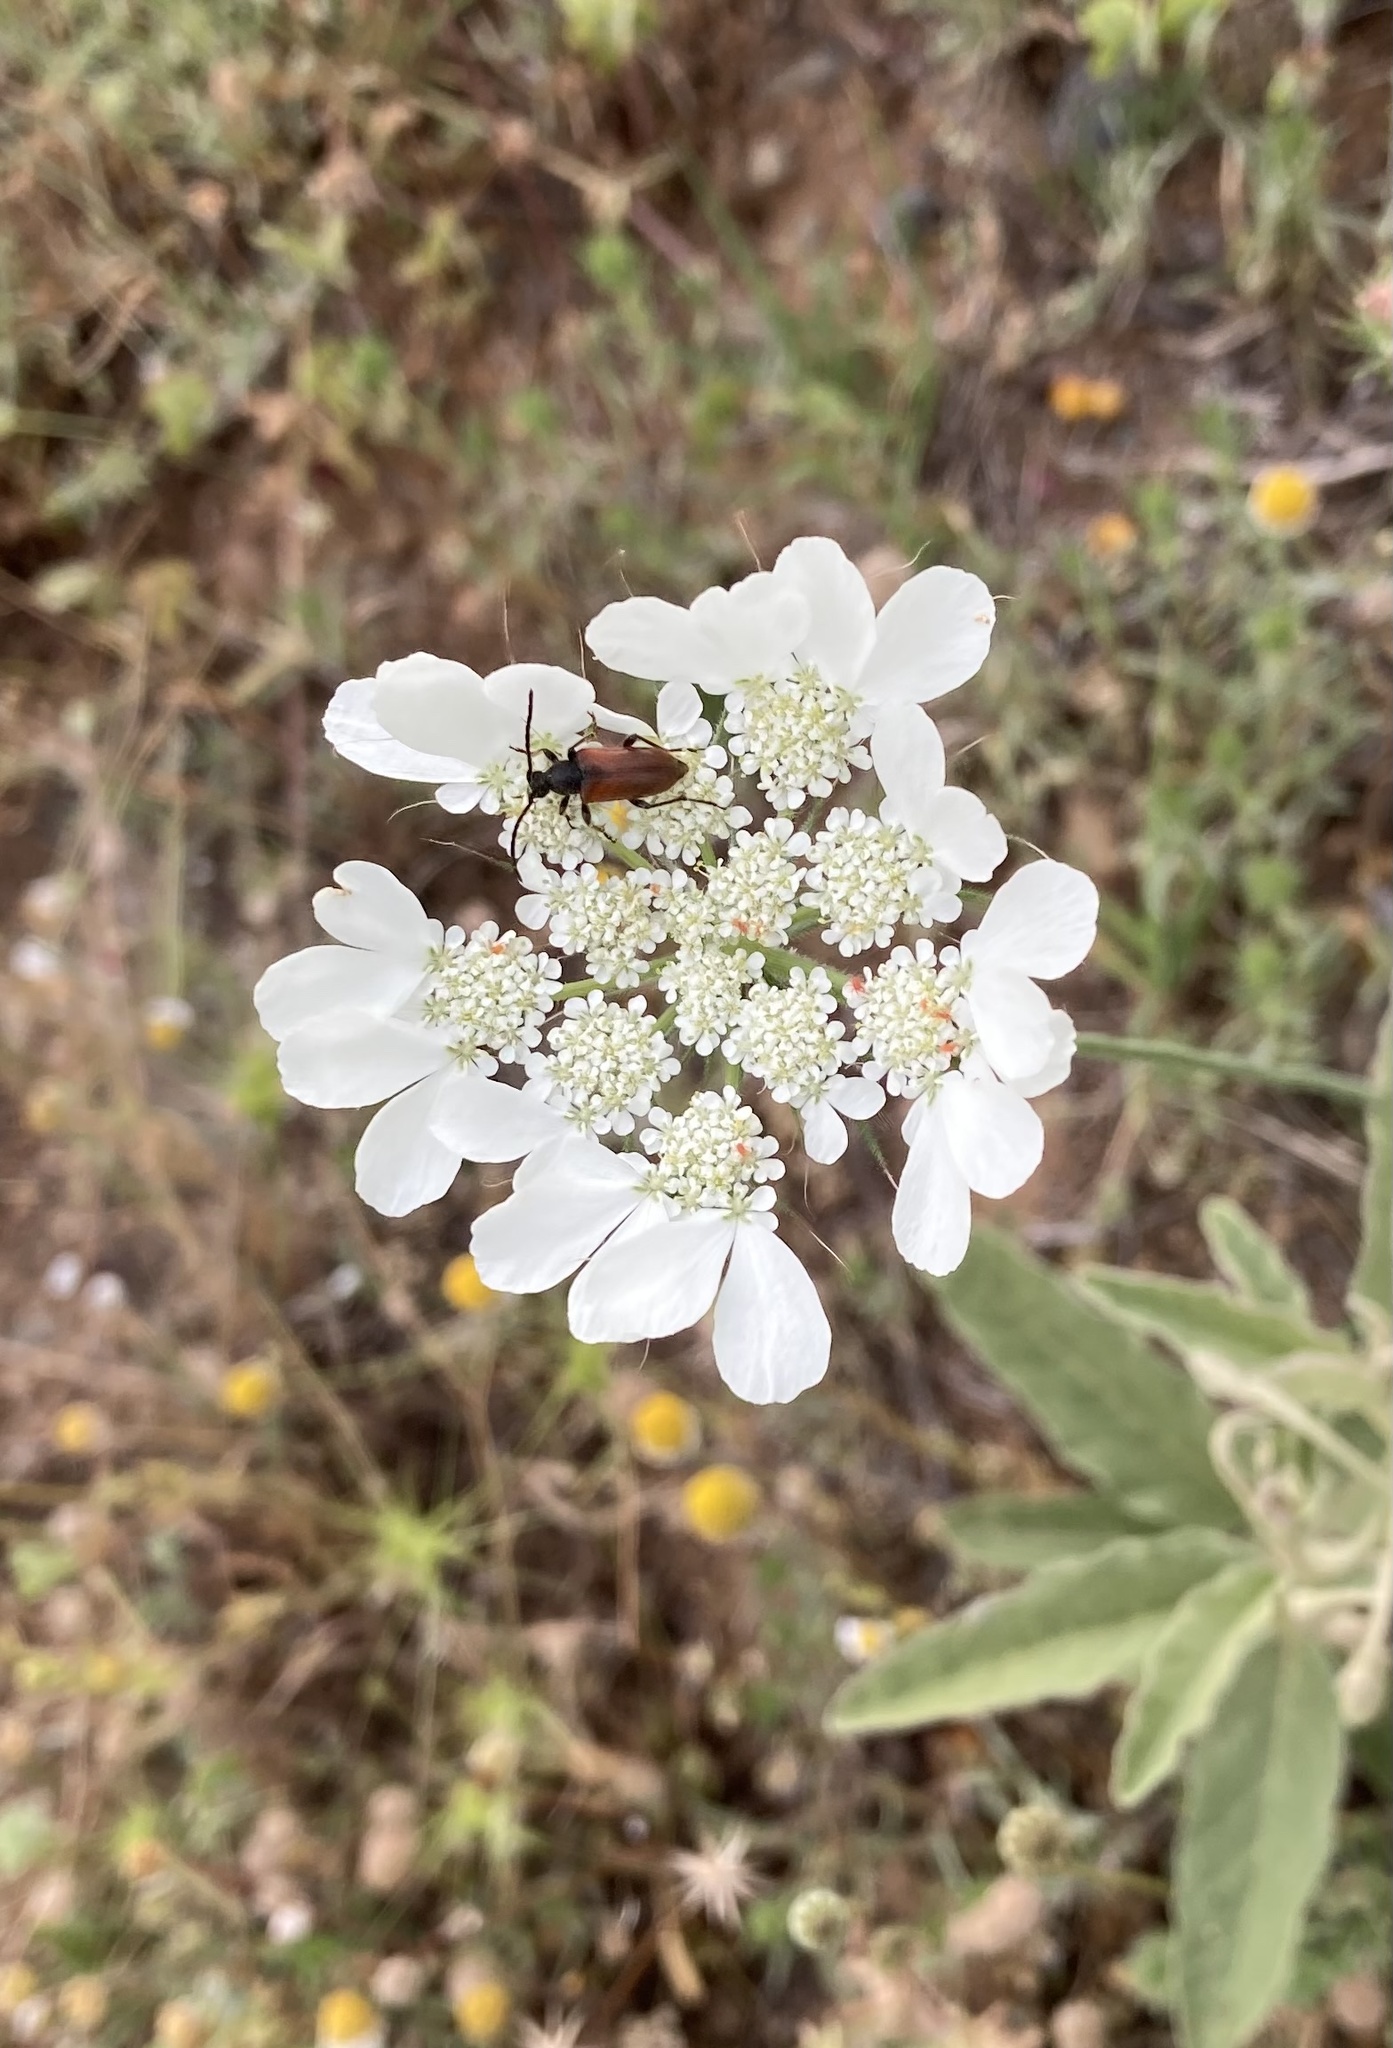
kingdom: Animalia
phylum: Arthropoda
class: Insecta
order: Coleoptera
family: Cerambycidae
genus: Pseudovadonia
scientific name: Pseudovadonia livida
